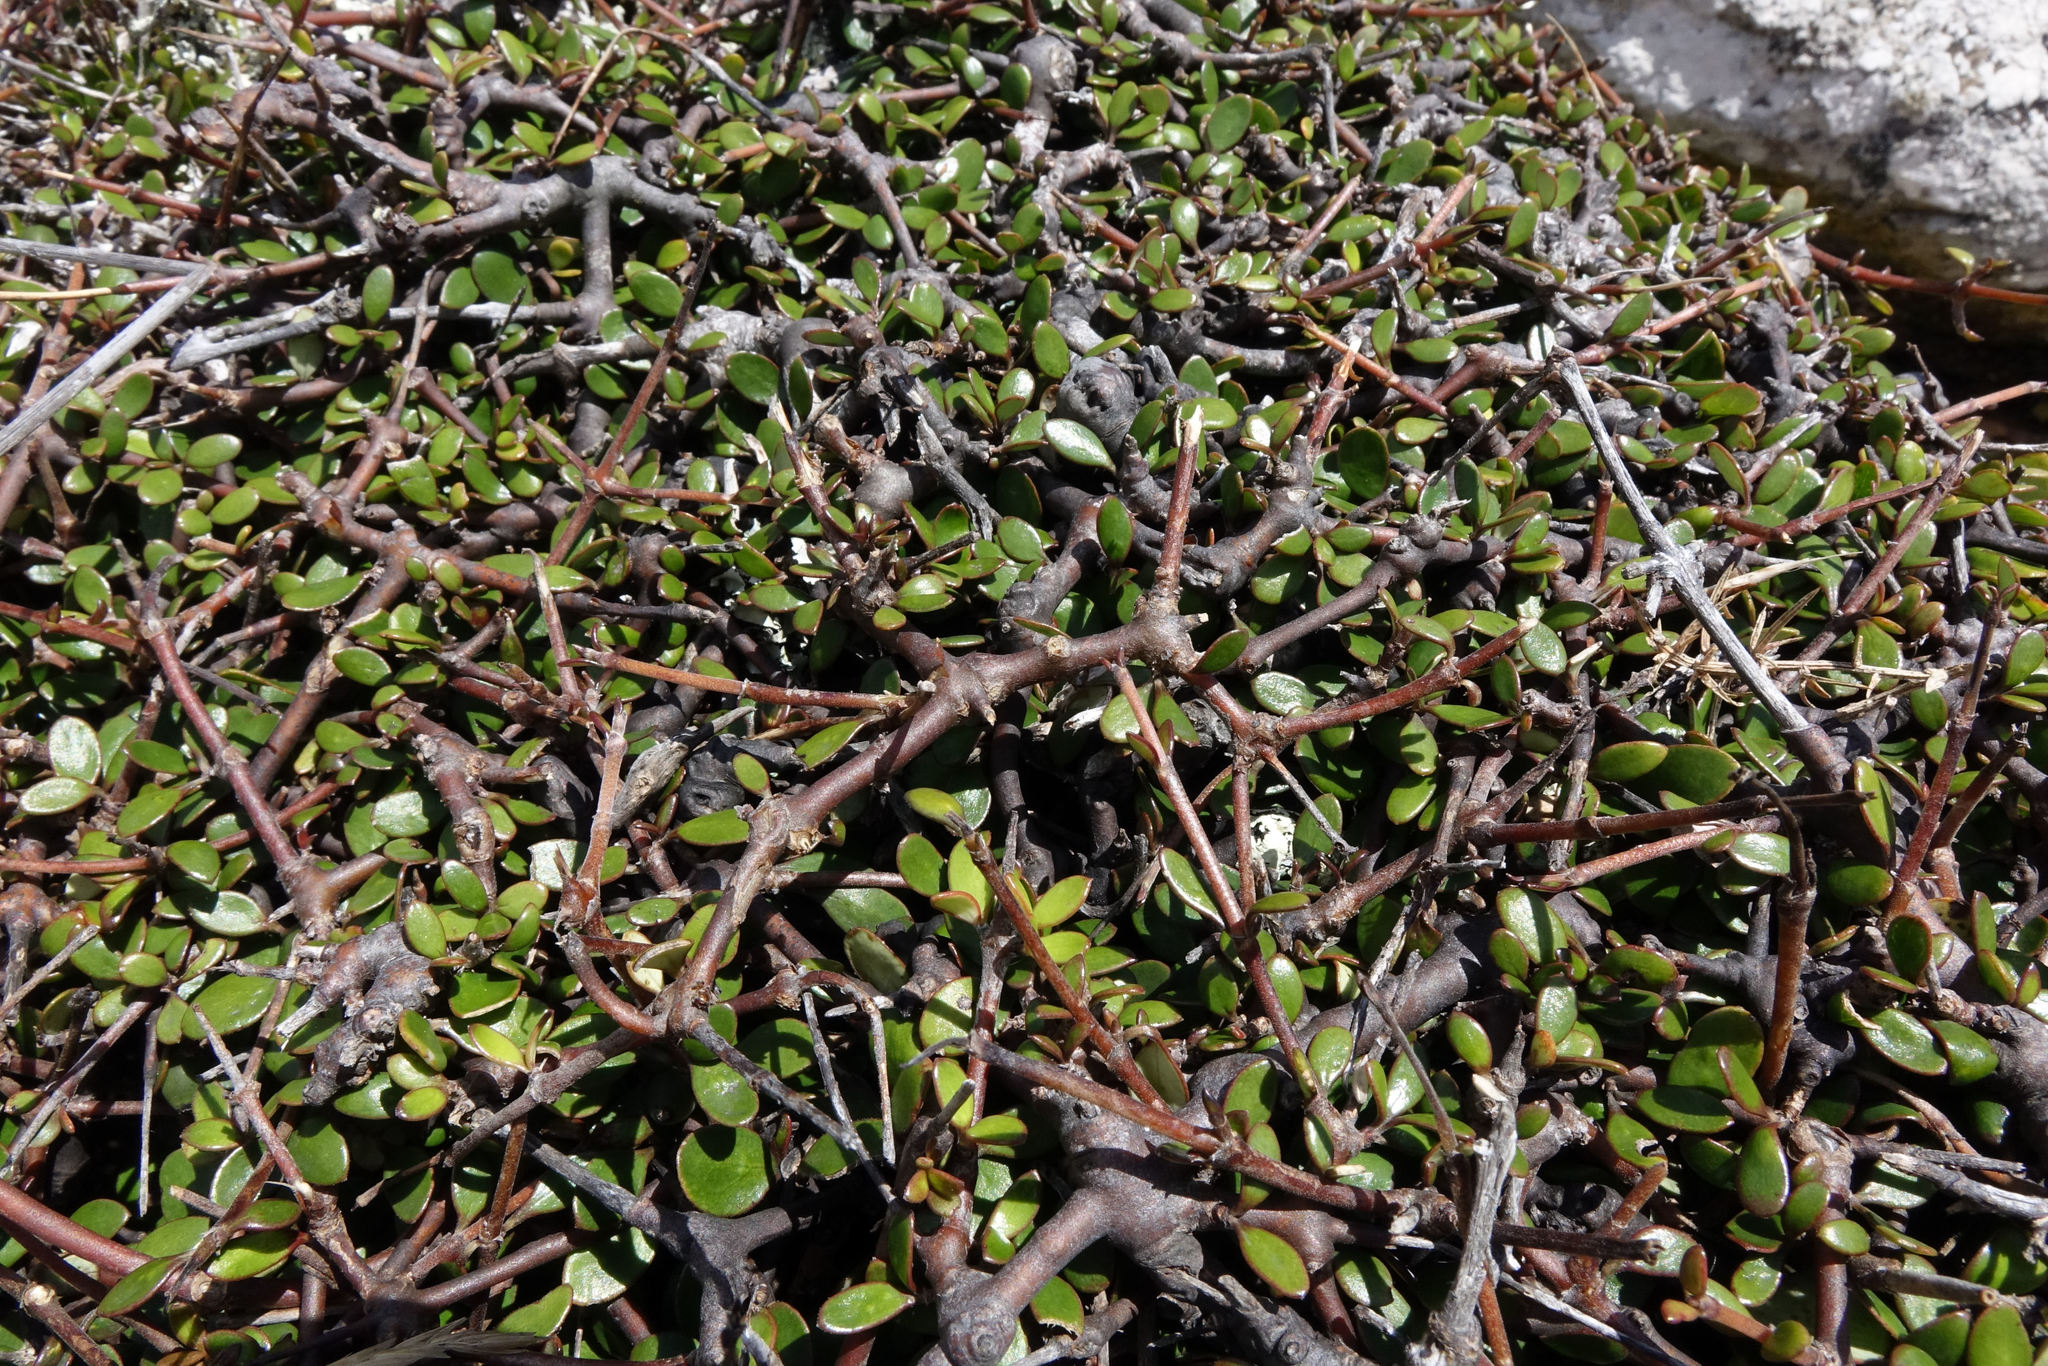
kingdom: Plantae
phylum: Tracheophyta
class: Magnoliopsida
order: Gentianales
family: Rubiaceae
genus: Coprosma
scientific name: Coprosma crassifolia
